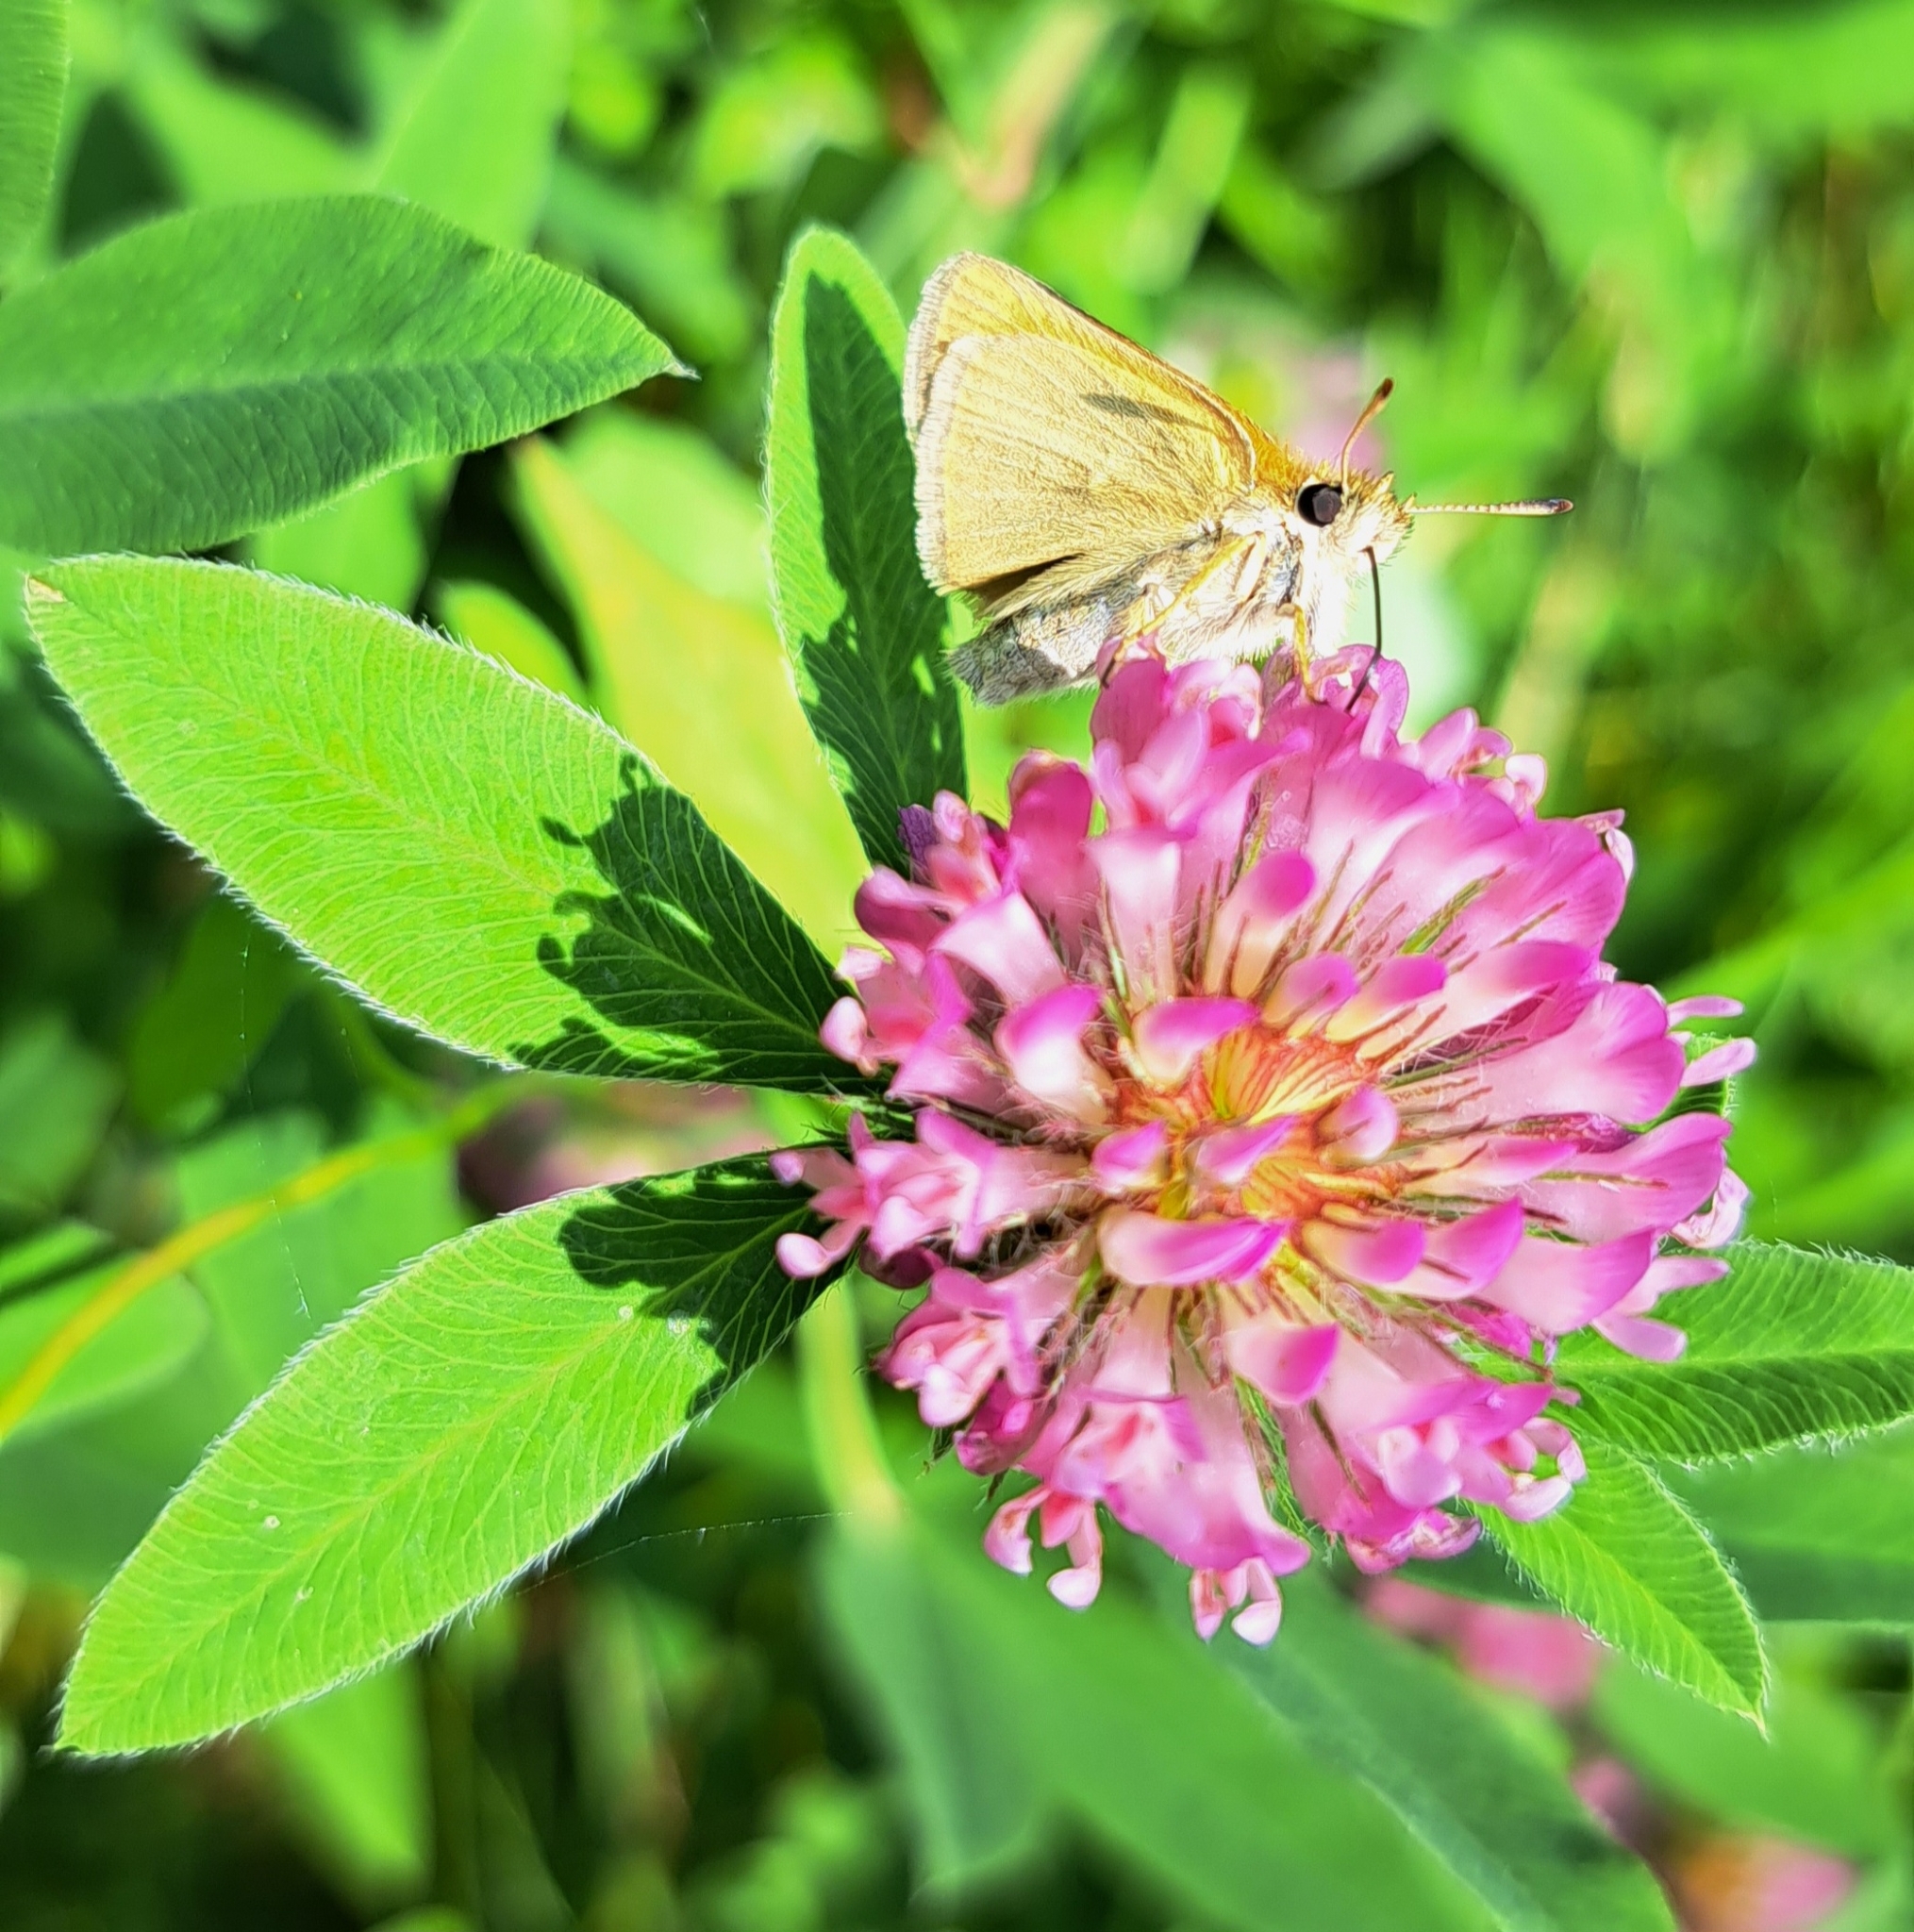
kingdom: Plantae
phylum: Tracheophyta
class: Magnoliopsida
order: Fabales
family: Fabaceae
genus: Trifolium
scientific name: Trifolium medium
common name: Zigzag clover
